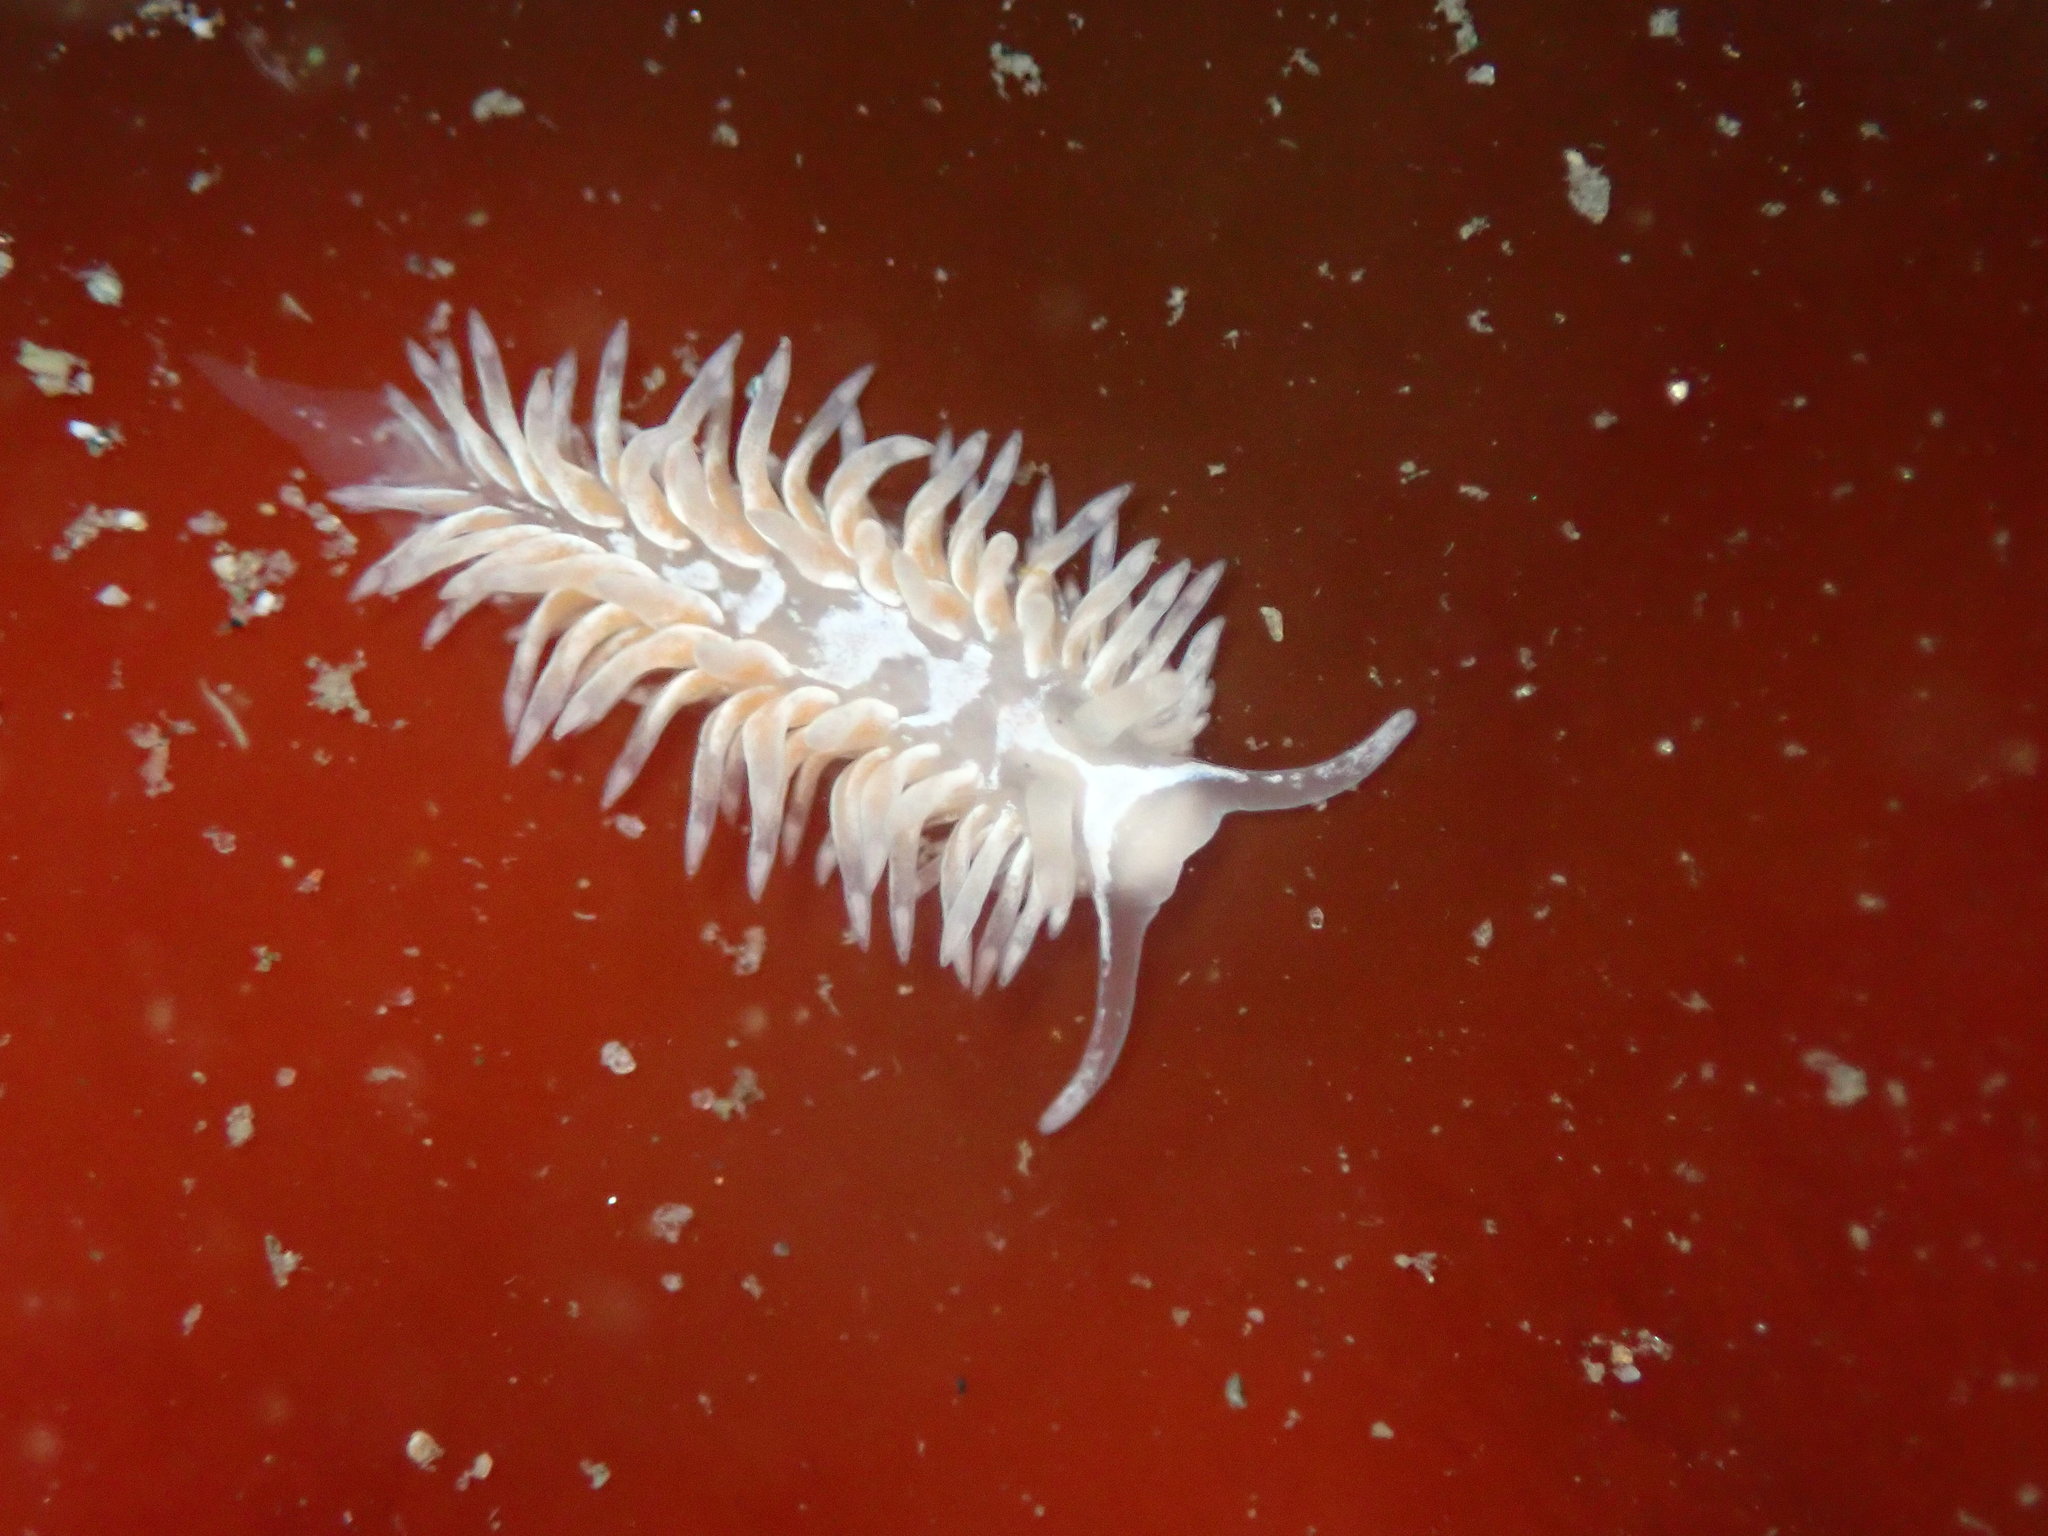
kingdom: Animalia
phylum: Mollusca
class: Gastropoda
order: Nudibranchia
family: Aeolidiidae
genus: Aeolidia
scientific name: Aeolidia loui
